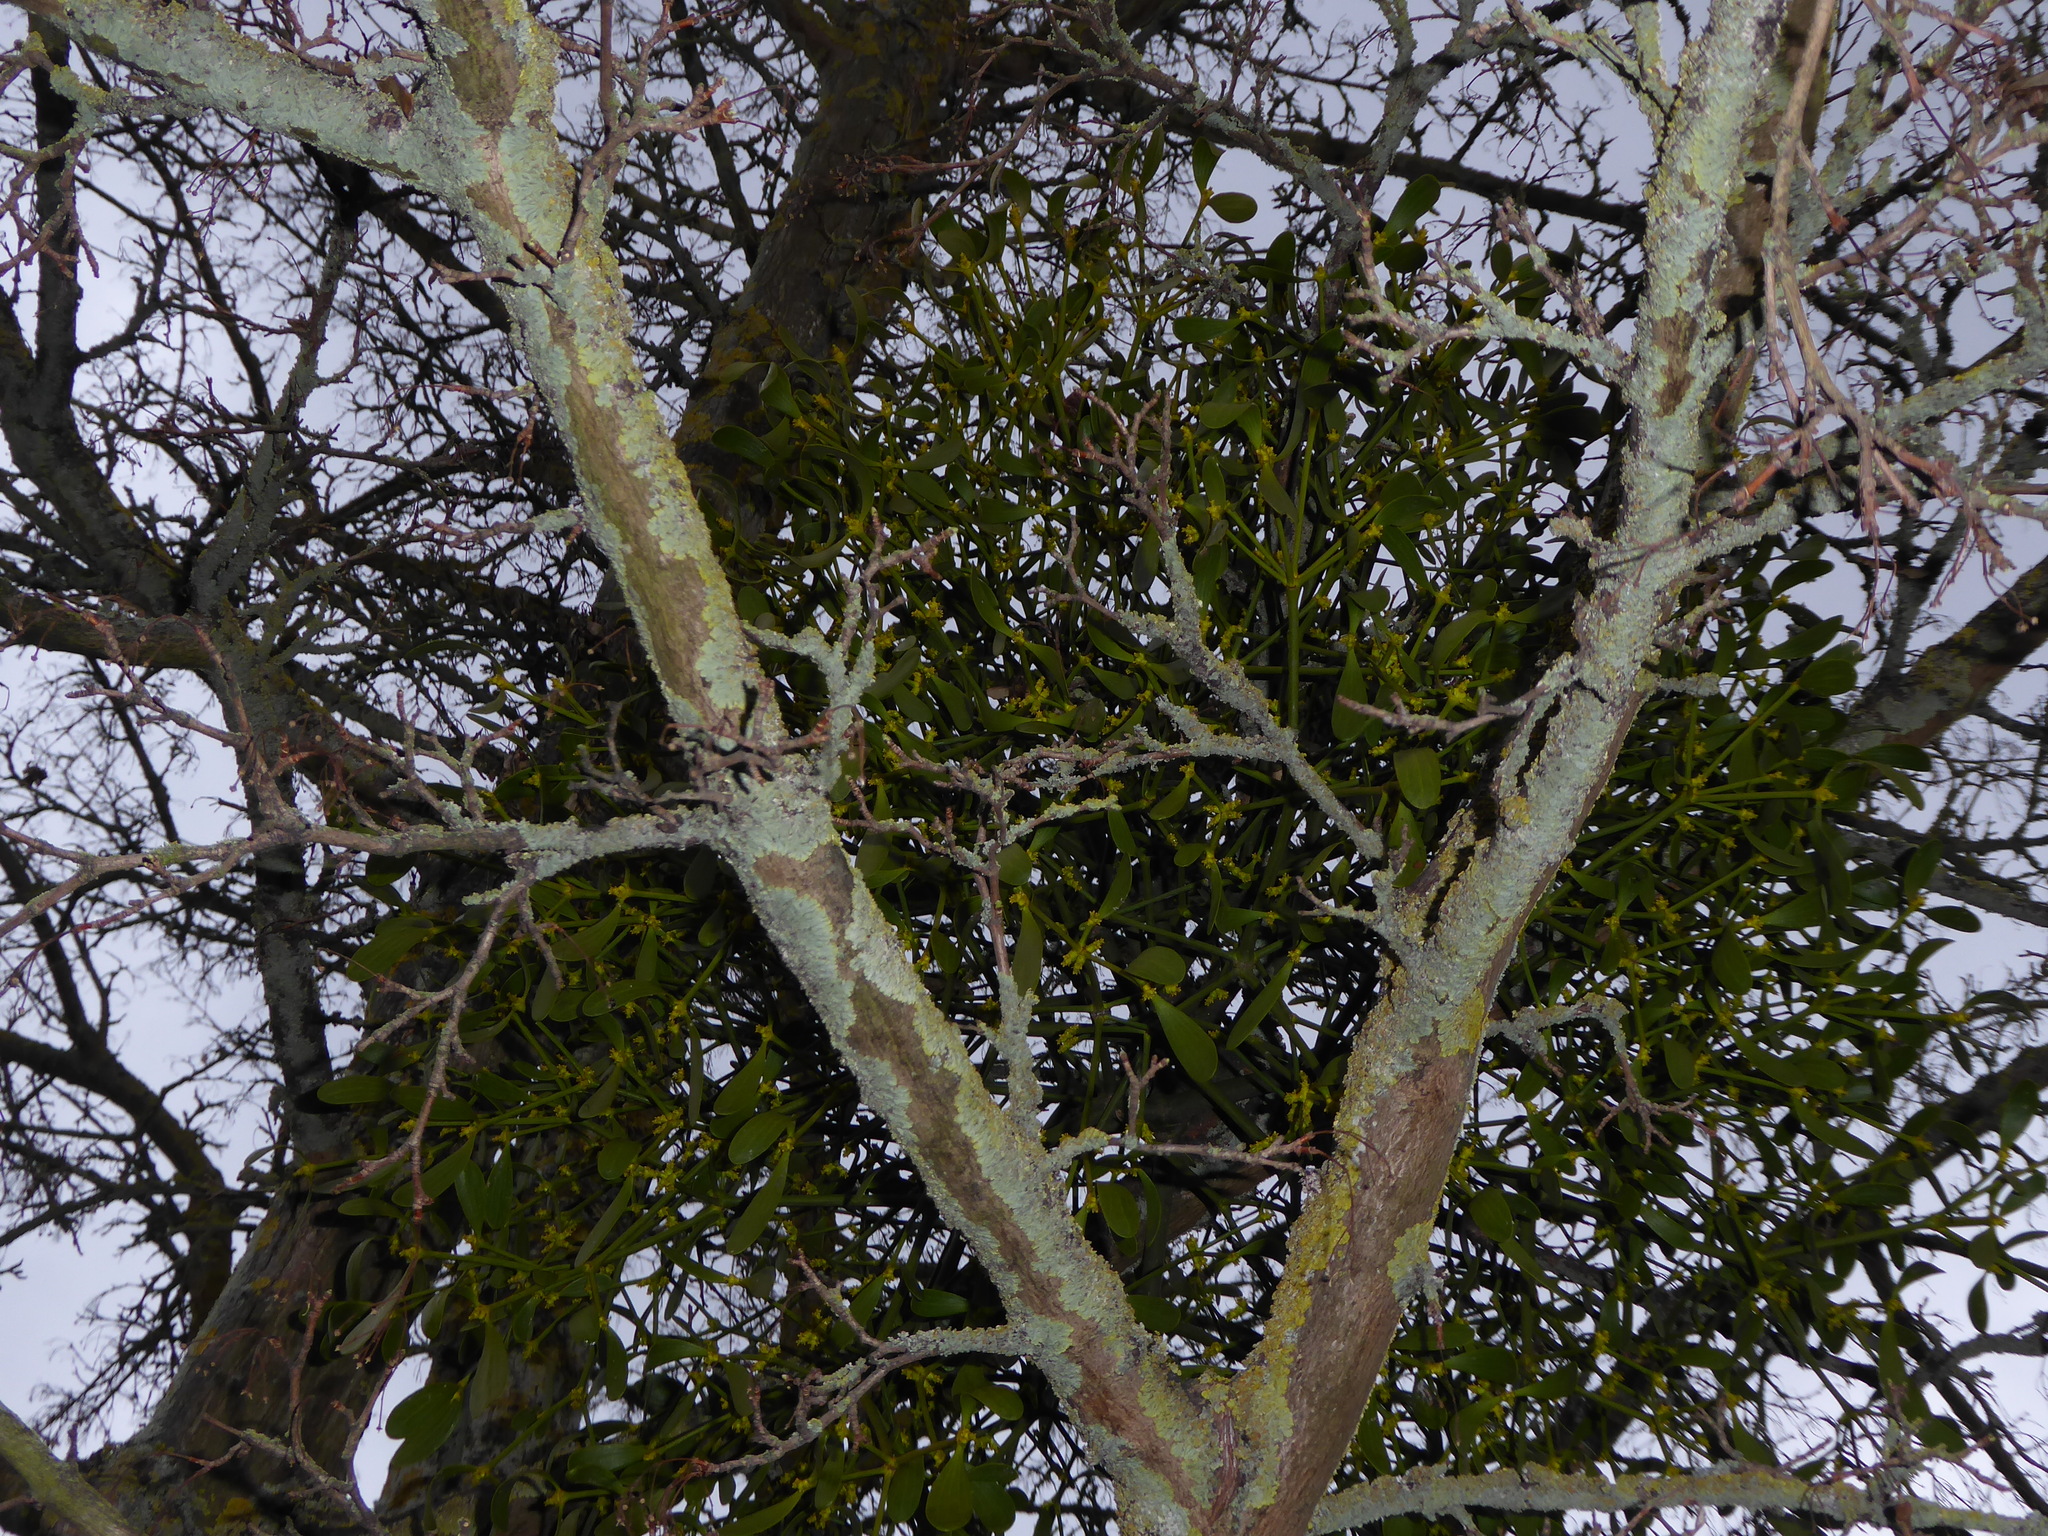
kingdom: Plantae
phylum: Tracheophyta
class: Magnoliopsida
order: Santalales
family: Viscaceae
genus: Viscum
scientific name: Viscum album
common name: Mistletoe
